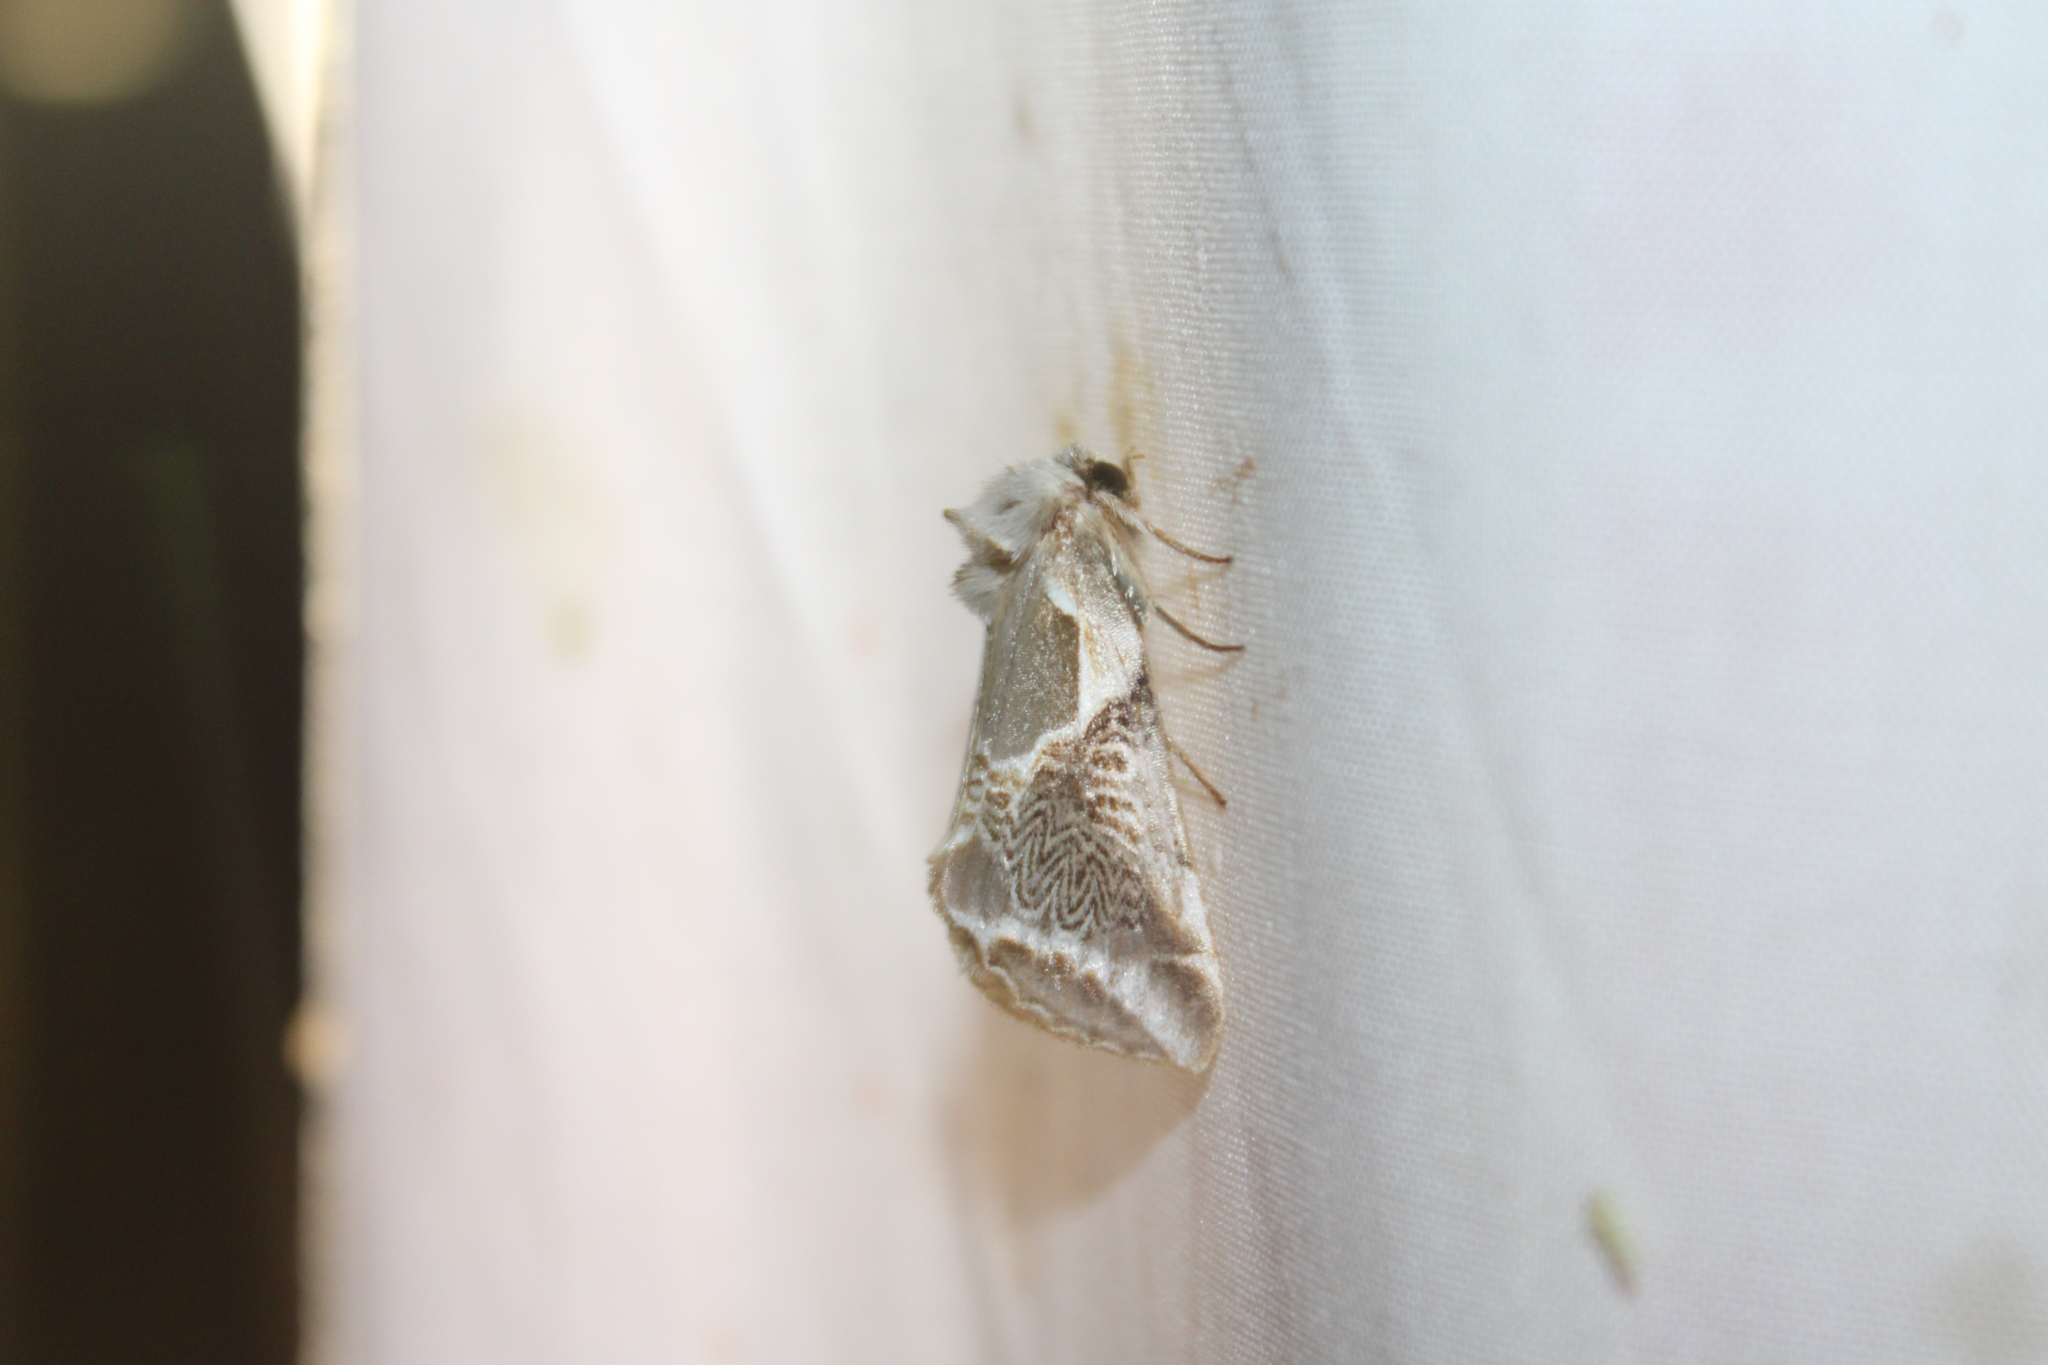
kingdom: Animalia
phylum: Arthropoda
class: Insecta
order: Lepidoptera
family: Drepanidae
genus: Habrosyne
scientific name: Habrosyne scripta
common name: Lettered habrosyne moth
